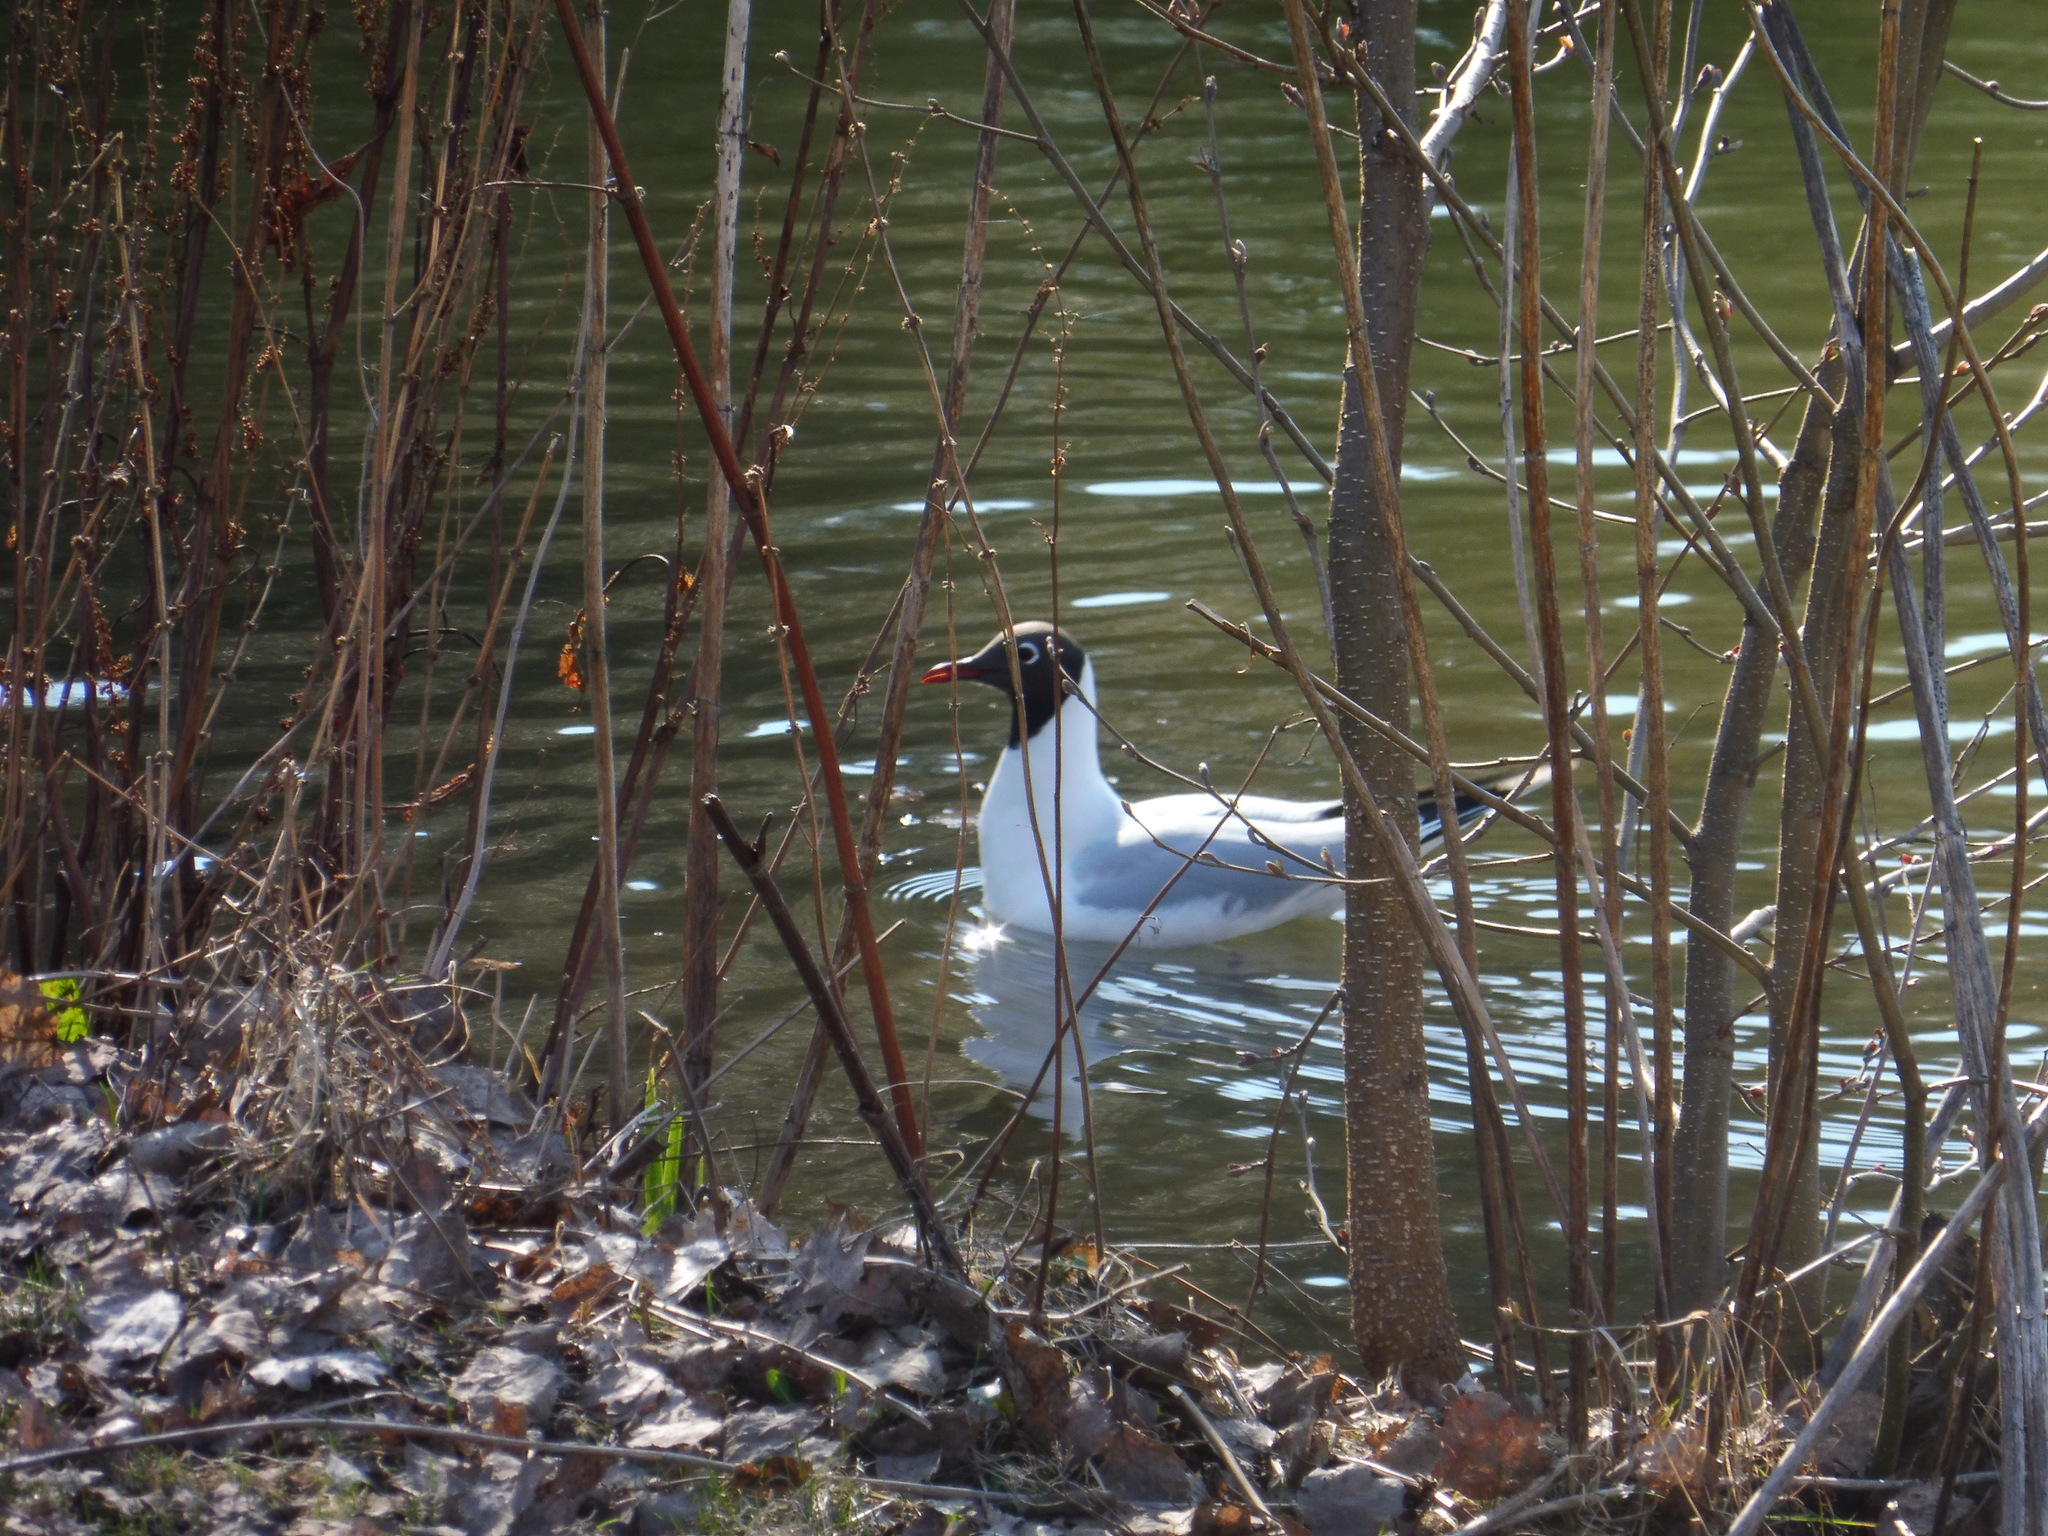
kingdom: Animalia
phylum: Chordata
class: Aves
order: Charadriiformes
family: Laridae
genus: Chroicocephalus
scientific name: Chroicocephalus ridibundus
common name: Black-headed gull
